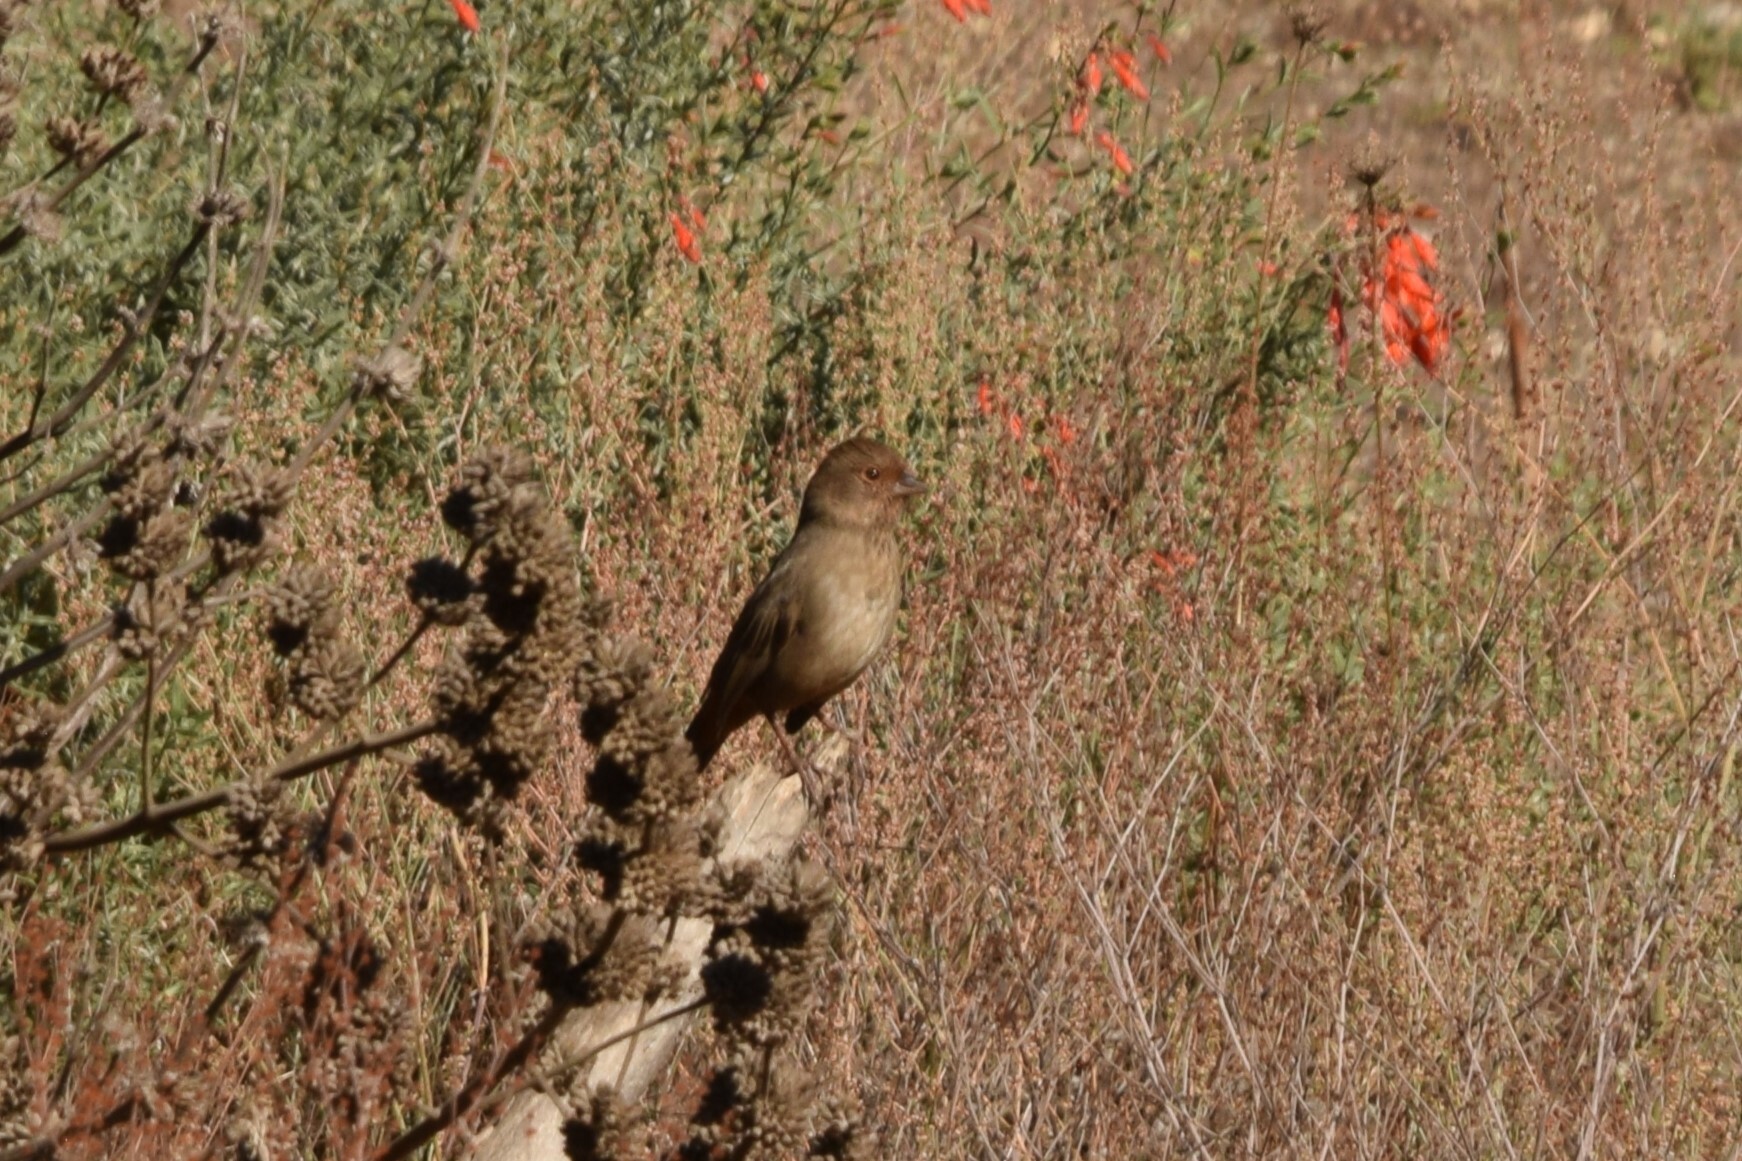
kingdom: Animalia
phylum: Chordata
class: Aves
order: Passeriformes
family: Passerellidae
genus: Melozone
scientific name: Melozone crissalis
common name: California towhee
